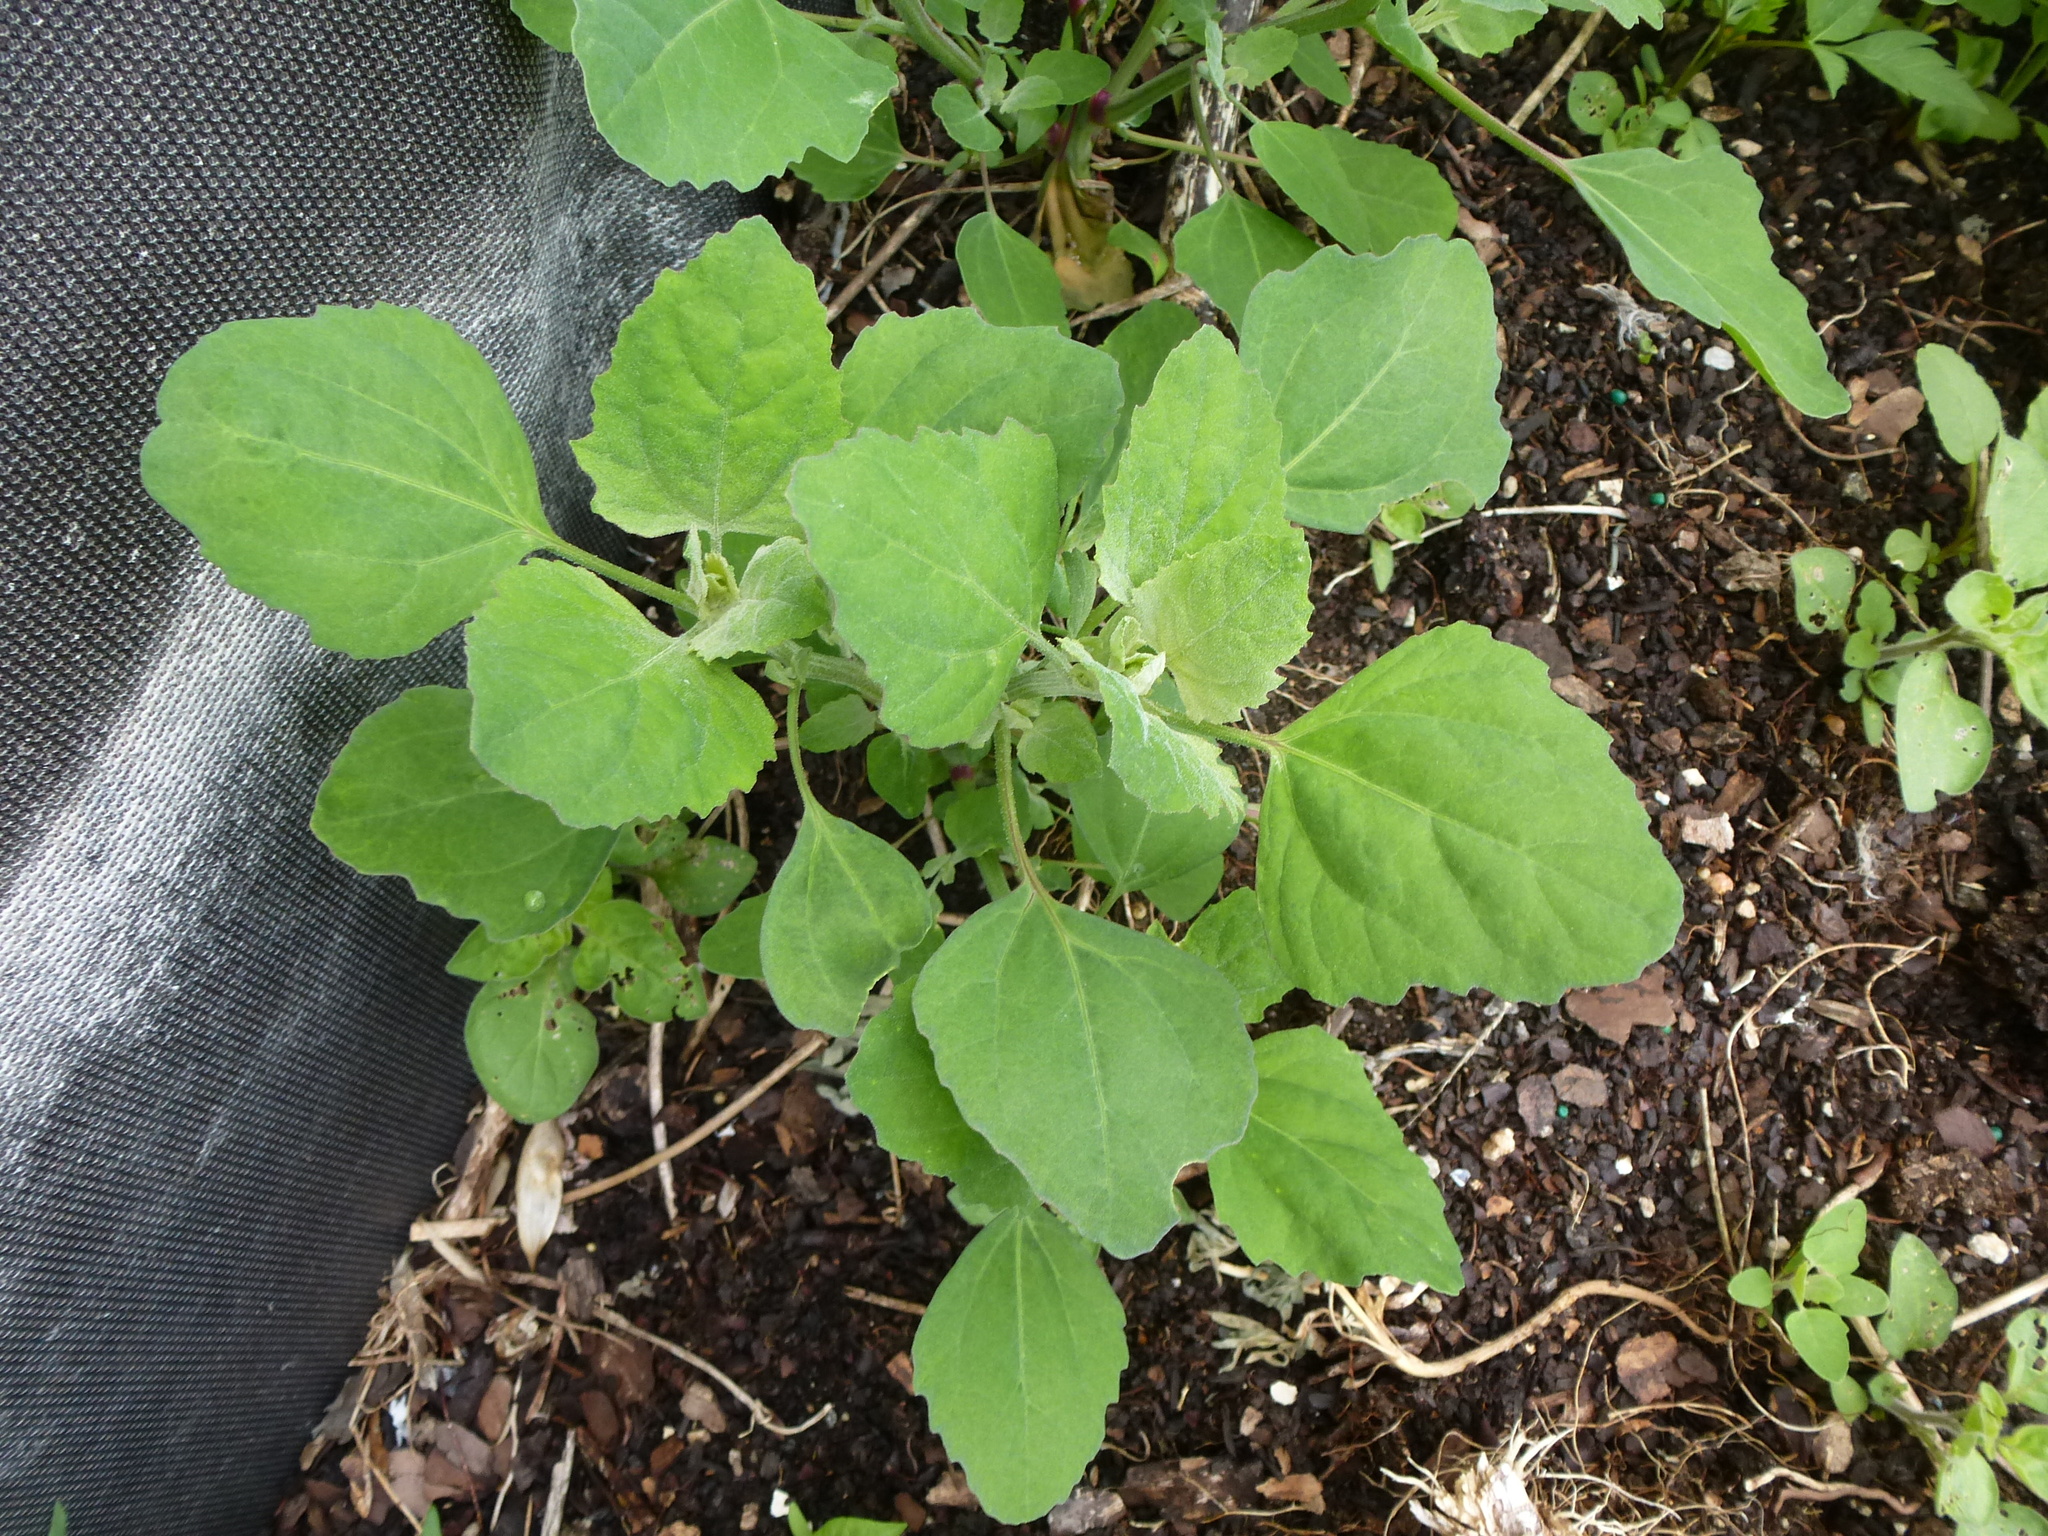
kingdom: Plantae
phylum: Tracheophyta
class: Magnoliopsida
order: Caryophyllales
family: Amaranthaceae
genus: Chenopodium
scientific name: Chenopodium album
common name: Fat-hen
